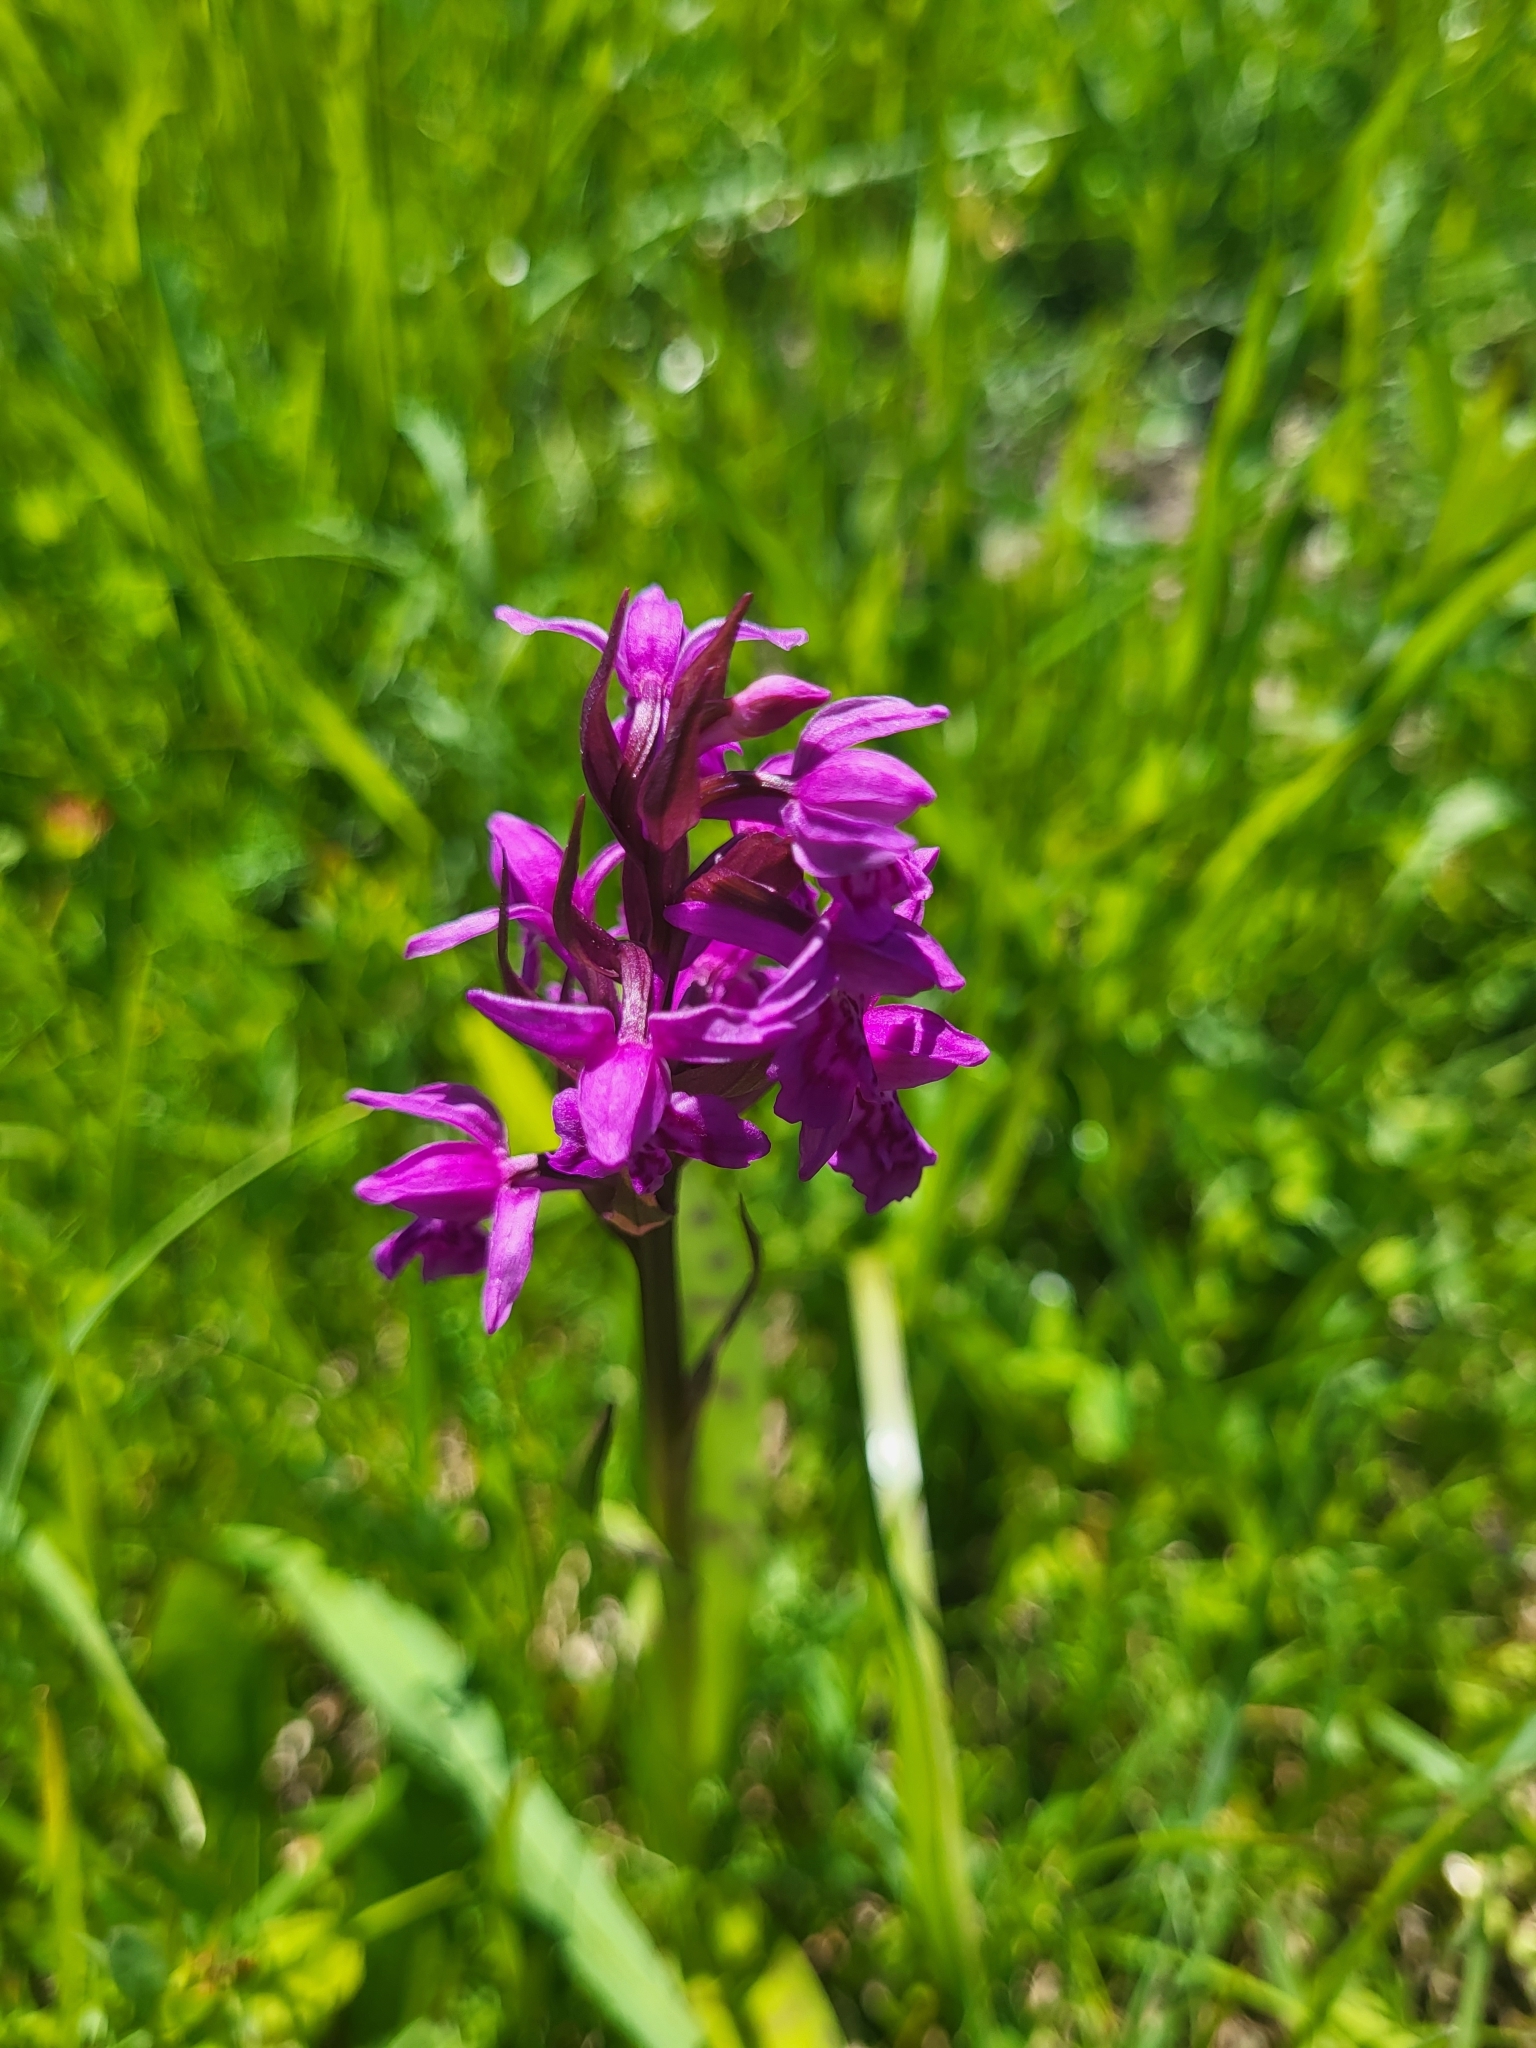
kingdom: Plantae
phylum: Tracheophyta
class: Liliopsida
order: Asparagales
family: Orchidaceae
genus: Dactylorhiza
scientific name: Dactylorhiza majalis
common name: Marsh orchid
